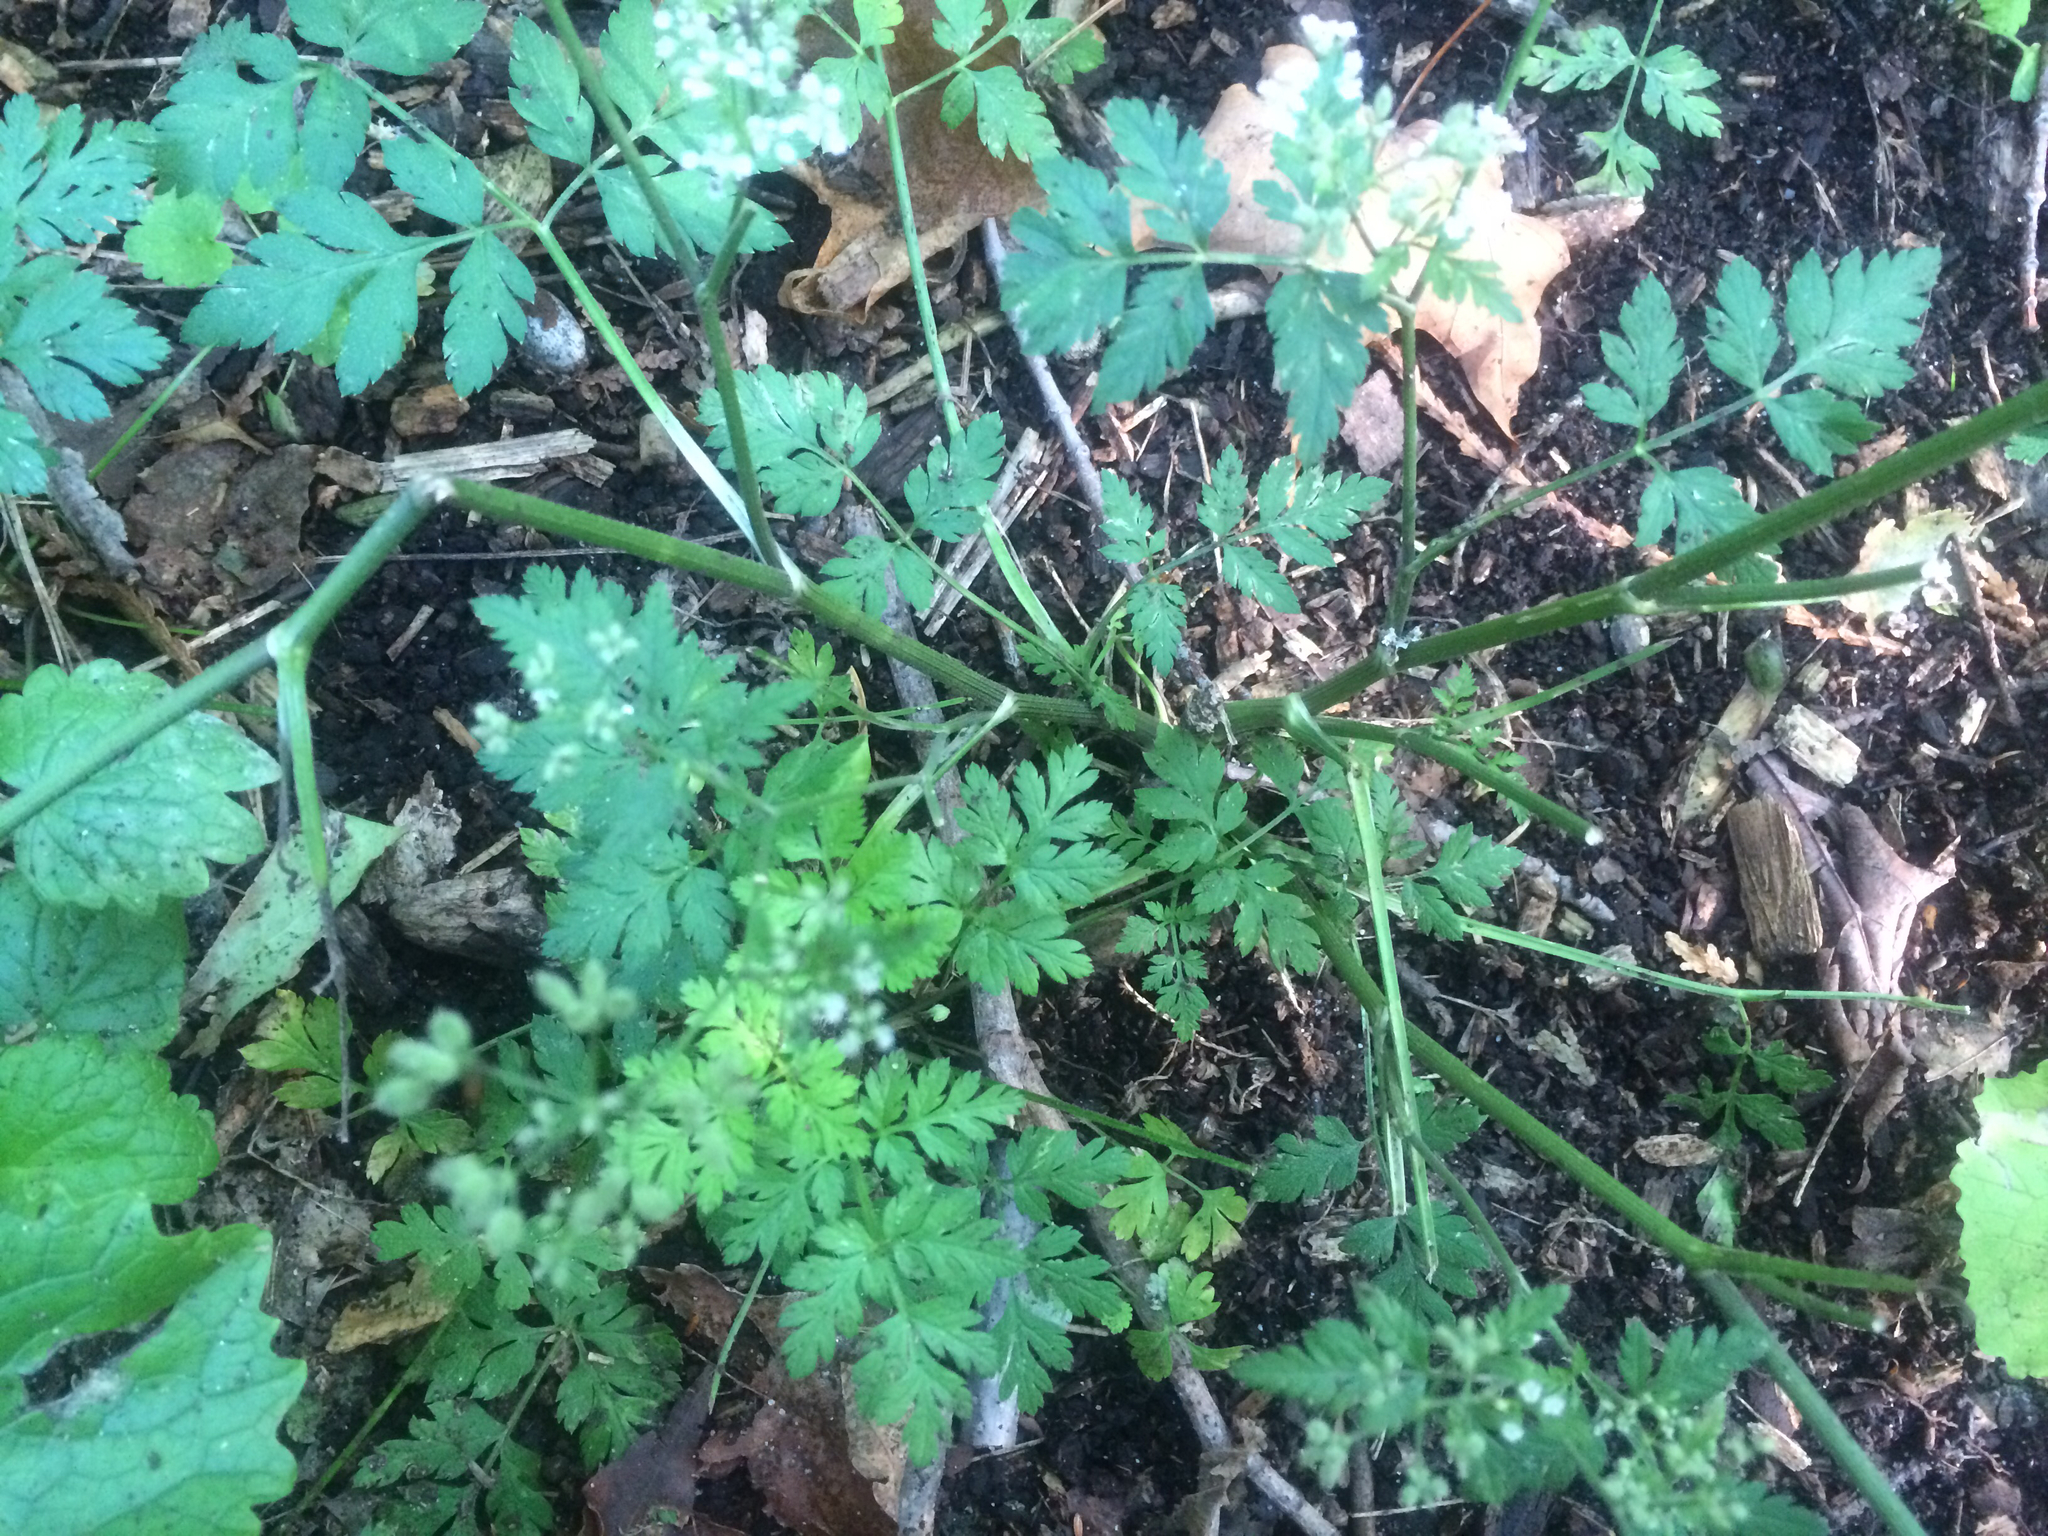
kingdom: Plantae
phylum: Tracheophyta
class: Magnoliopsida
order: Apiales
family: Apiaceae
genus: Torilis
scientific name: Torilis japonica
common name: Upright hedge-parsley
